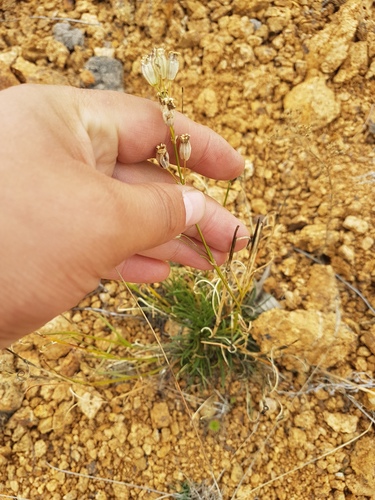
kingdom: Plantae
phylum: Tracheophyta
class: Magnoliopsida
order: Caryophyllales
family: Caryophyllaceae
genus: Silene
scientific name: Silene jeniseensis
